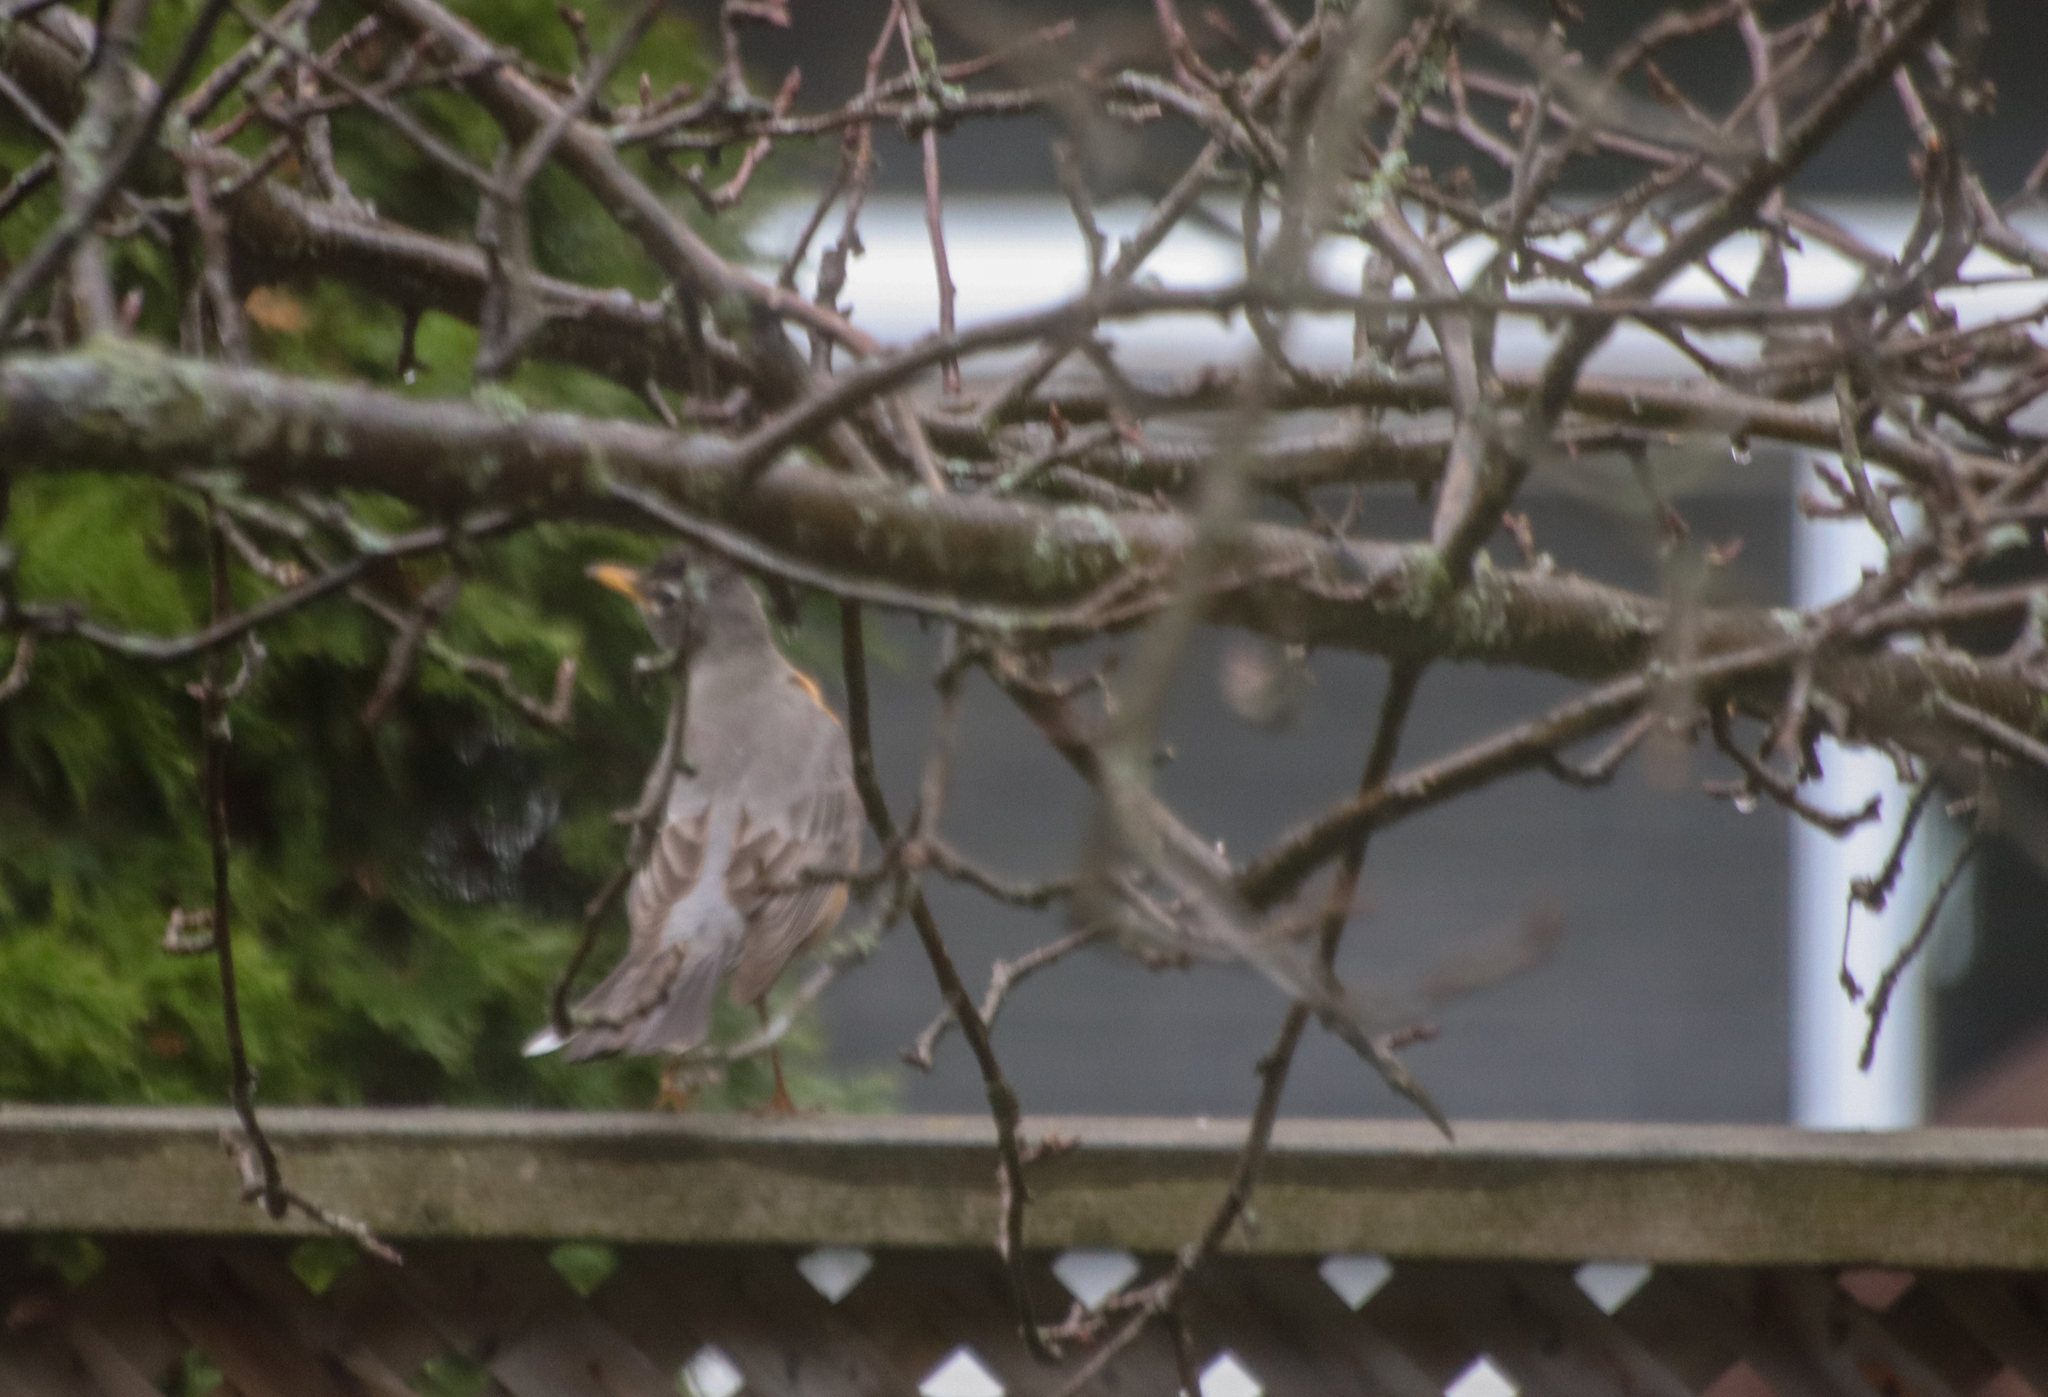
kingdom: Animalia
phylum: Chordata
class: Aves
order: Passeriformes
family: Turdidae
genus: Turdus
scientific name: Turdus migratorius
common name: American robin
